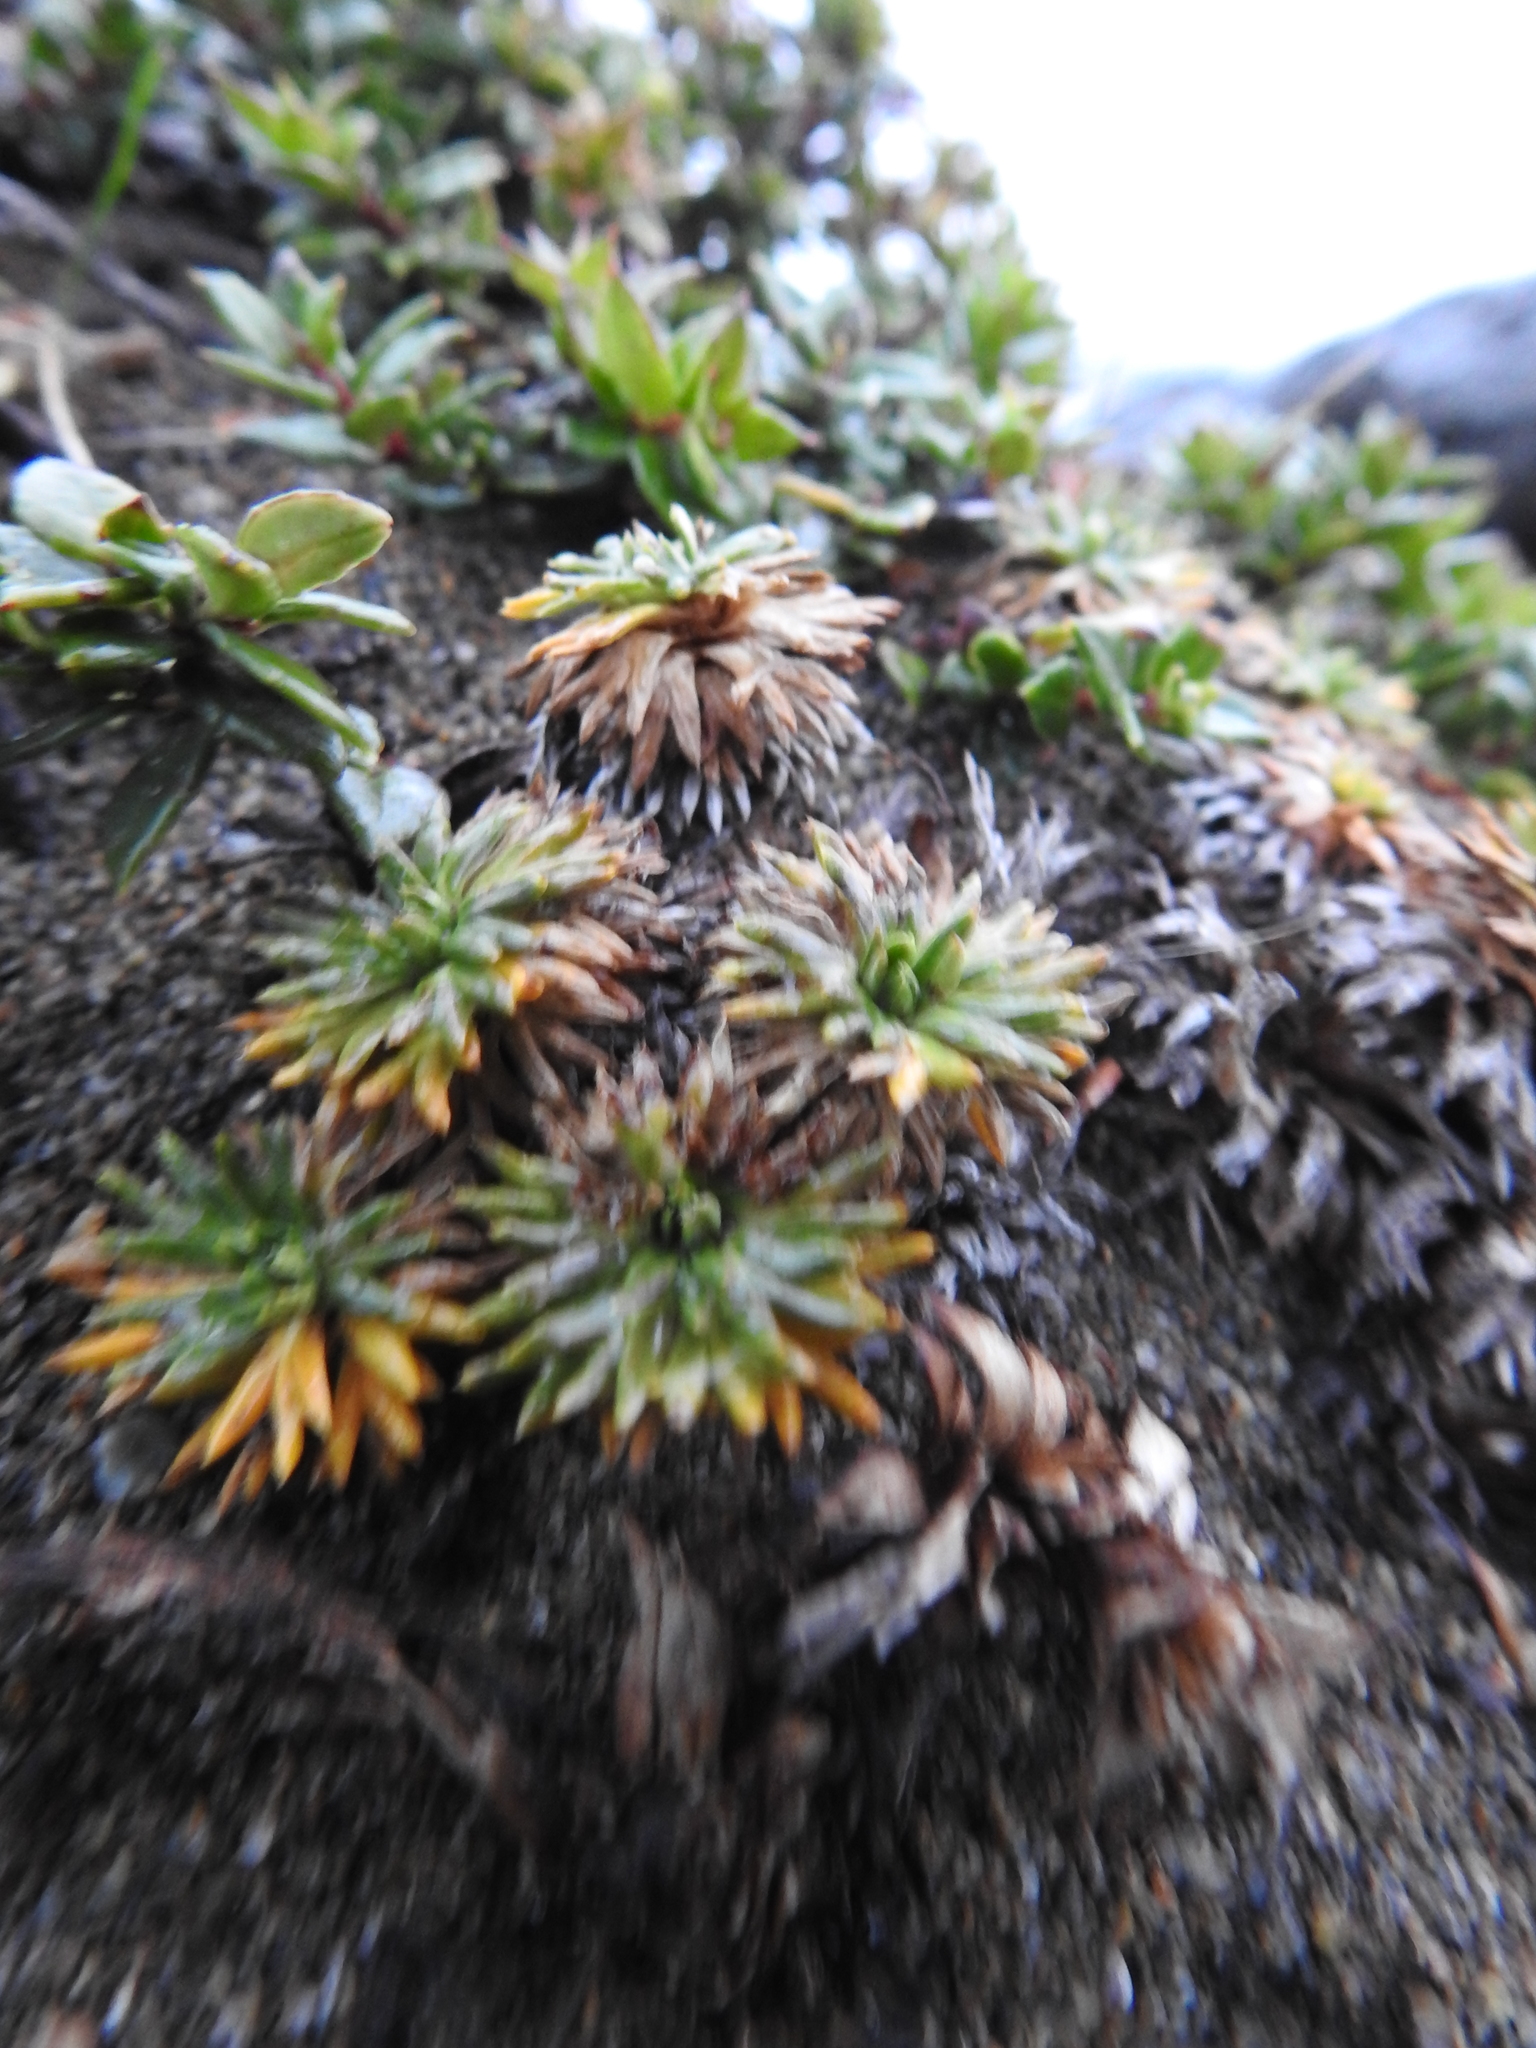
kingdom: Plantae
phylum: Tracheophyta
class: Magnoliopsida
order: Apiales
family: Apiaceae
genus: Azorella
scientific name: Azorella trifurcata
